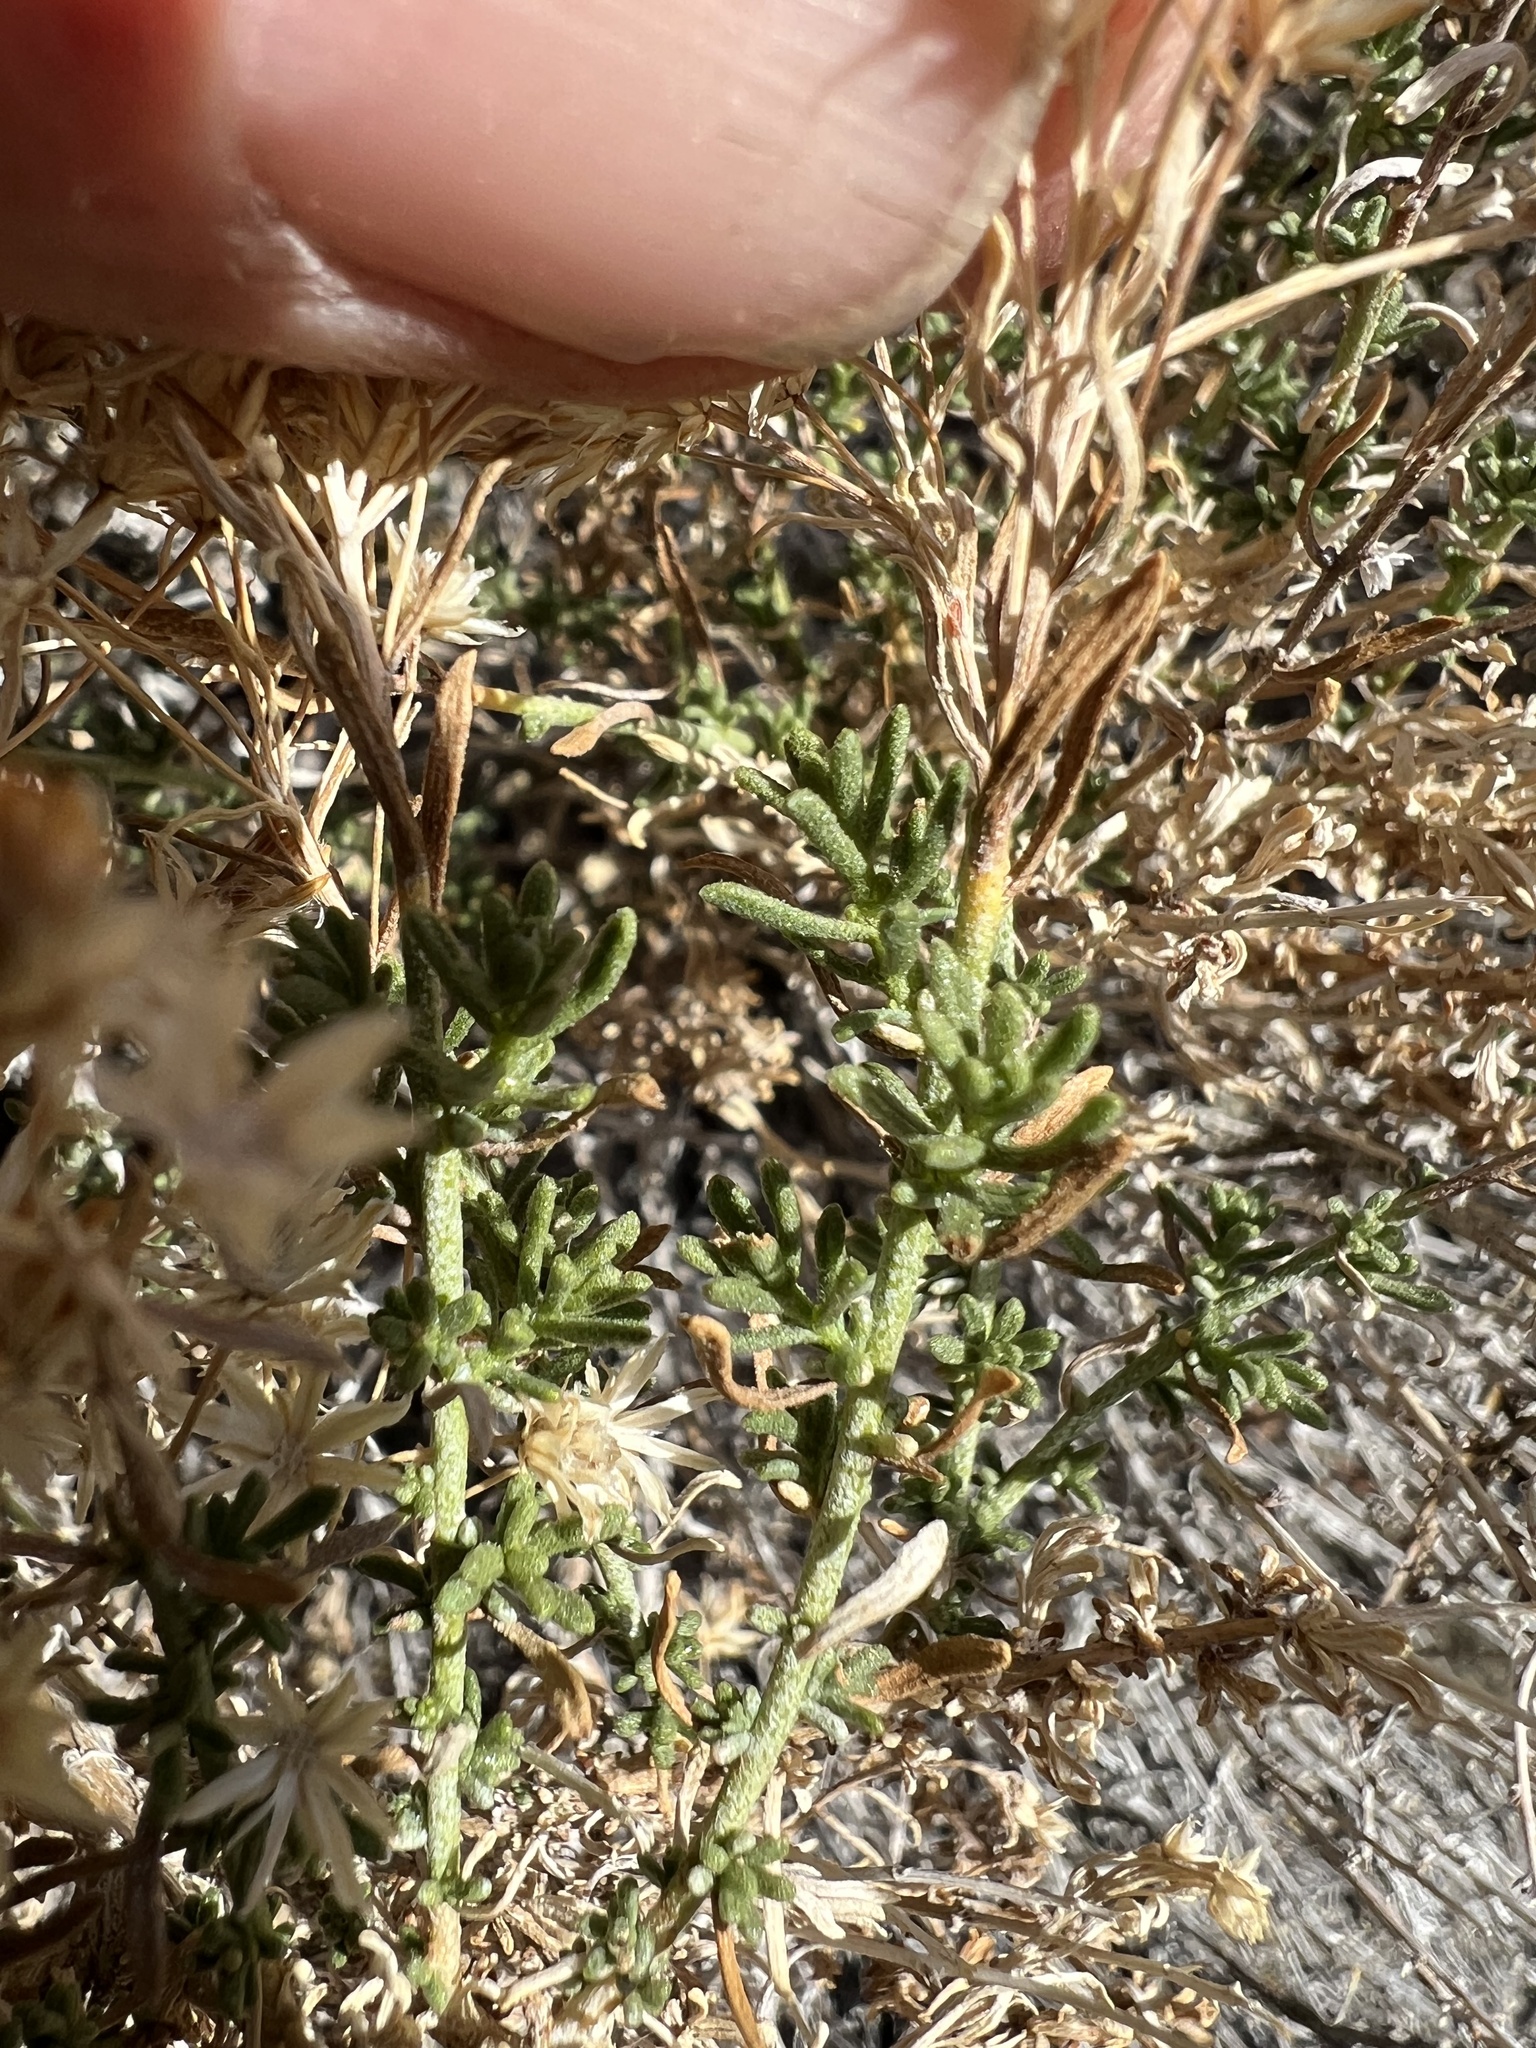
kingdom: Plantae
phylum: Tracheophyta
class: Magnoliopsida
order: Asterales
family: Asteraceae
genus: Ericameria
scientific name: Ericameria cooperi
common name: Cooper's goldenbush
